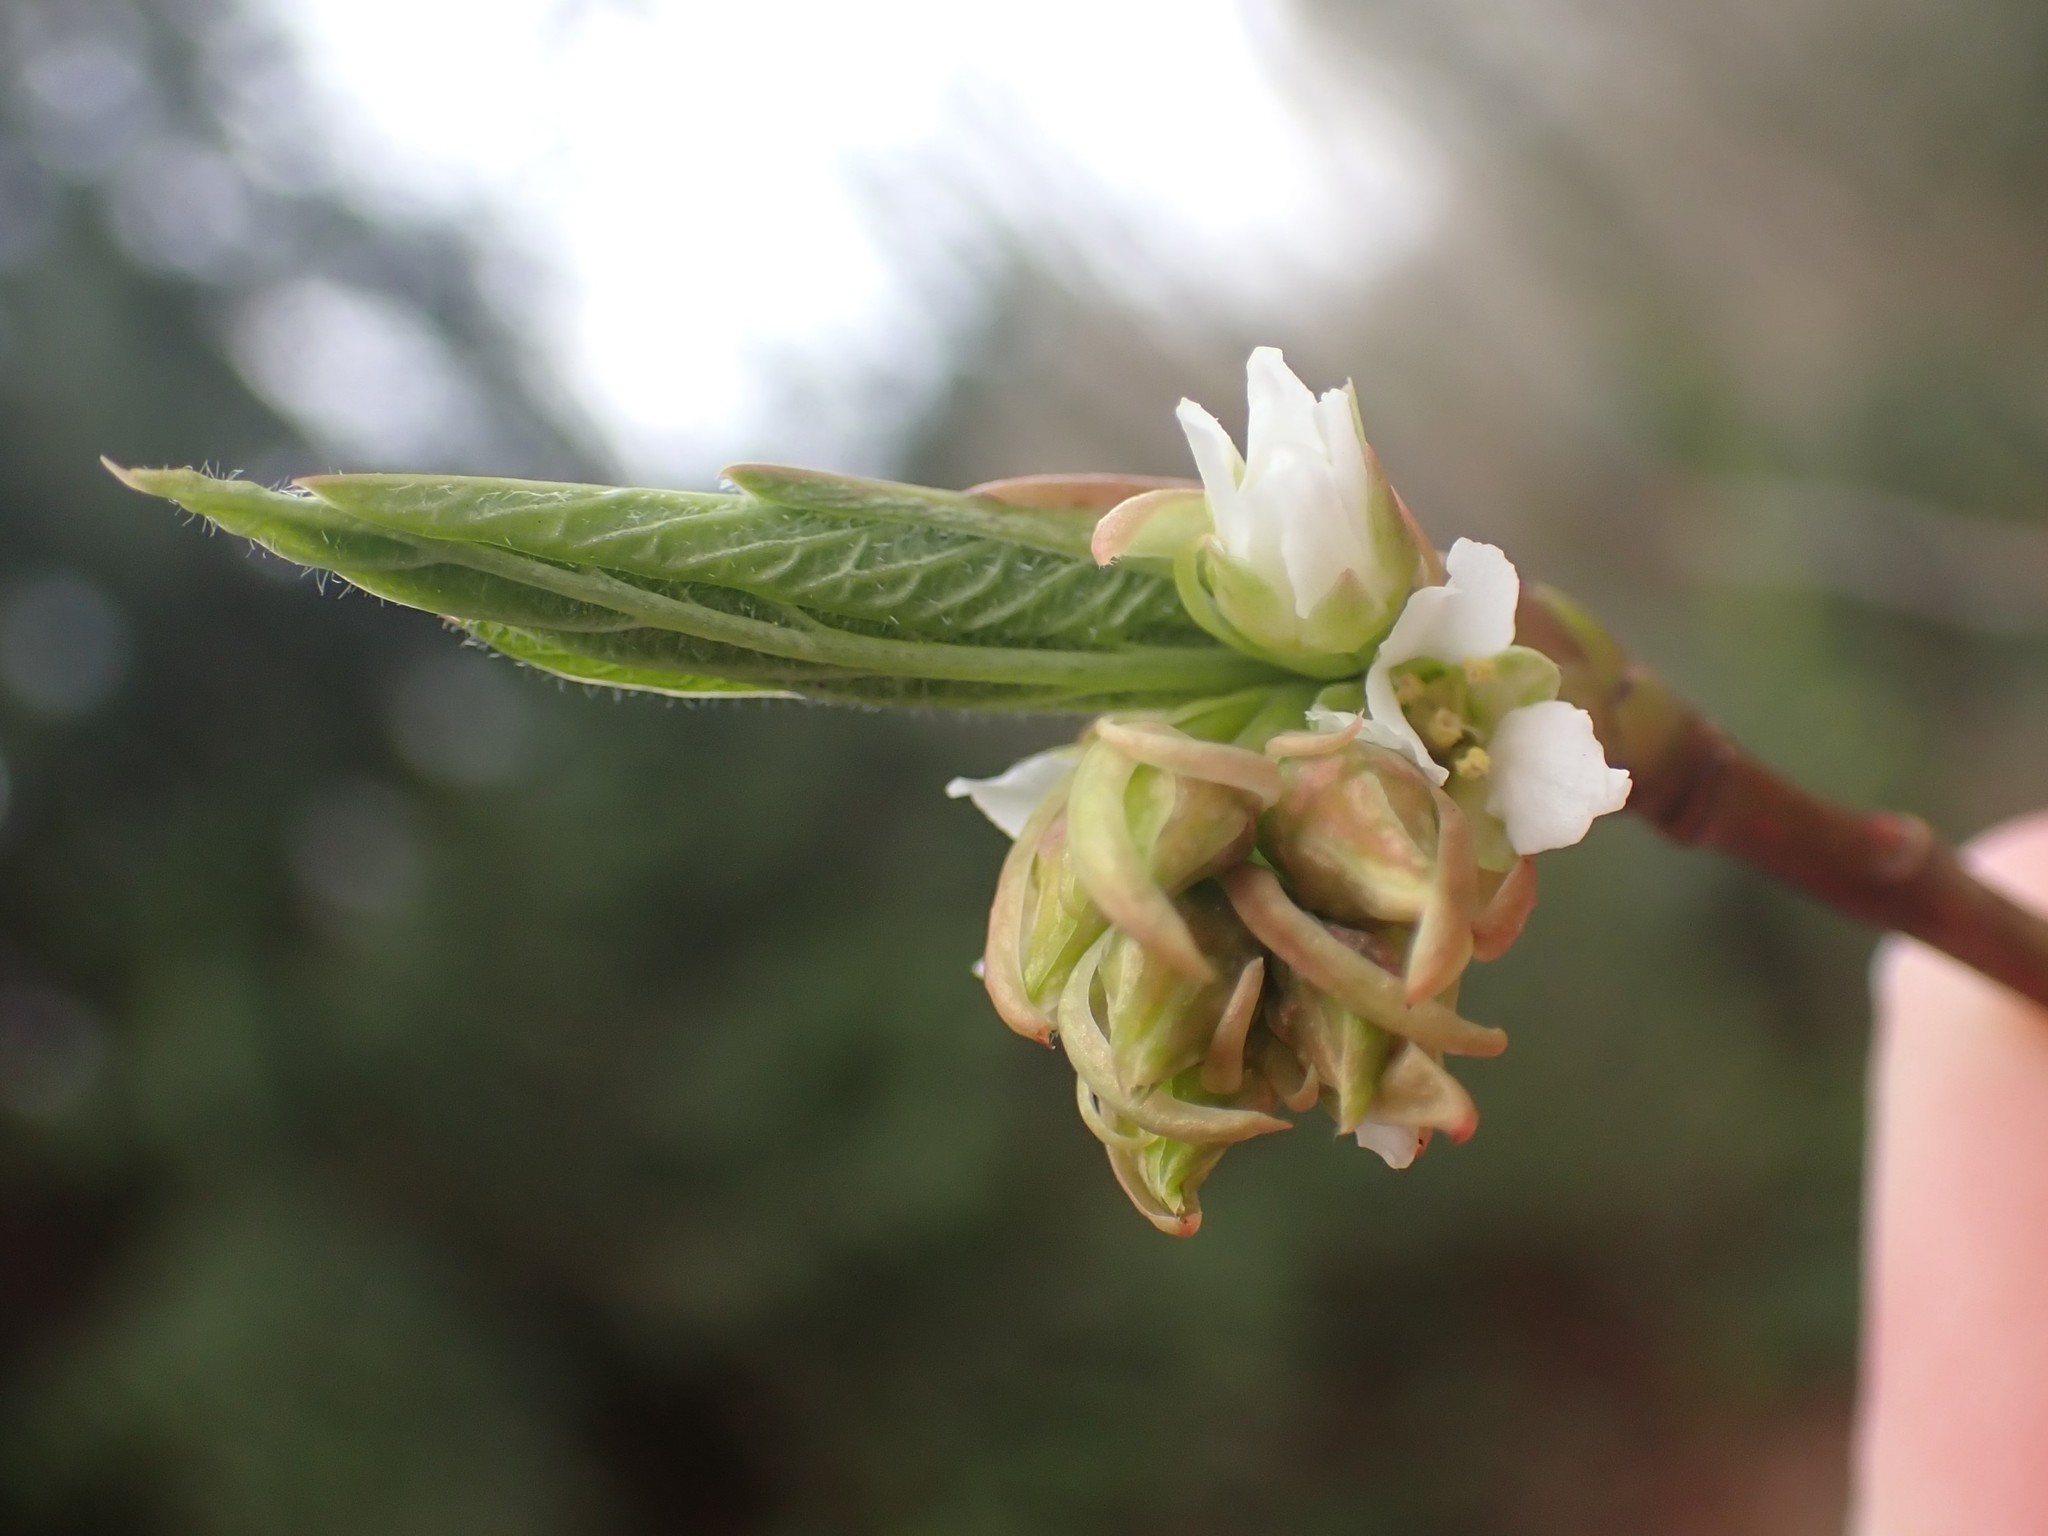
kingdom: Plantae
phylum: Tracheophyta
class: Magnoliopsida
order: Rosales
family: Rosaceae
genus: Oemleria
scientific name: Oemleria cerasiformis
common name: Osoberry
